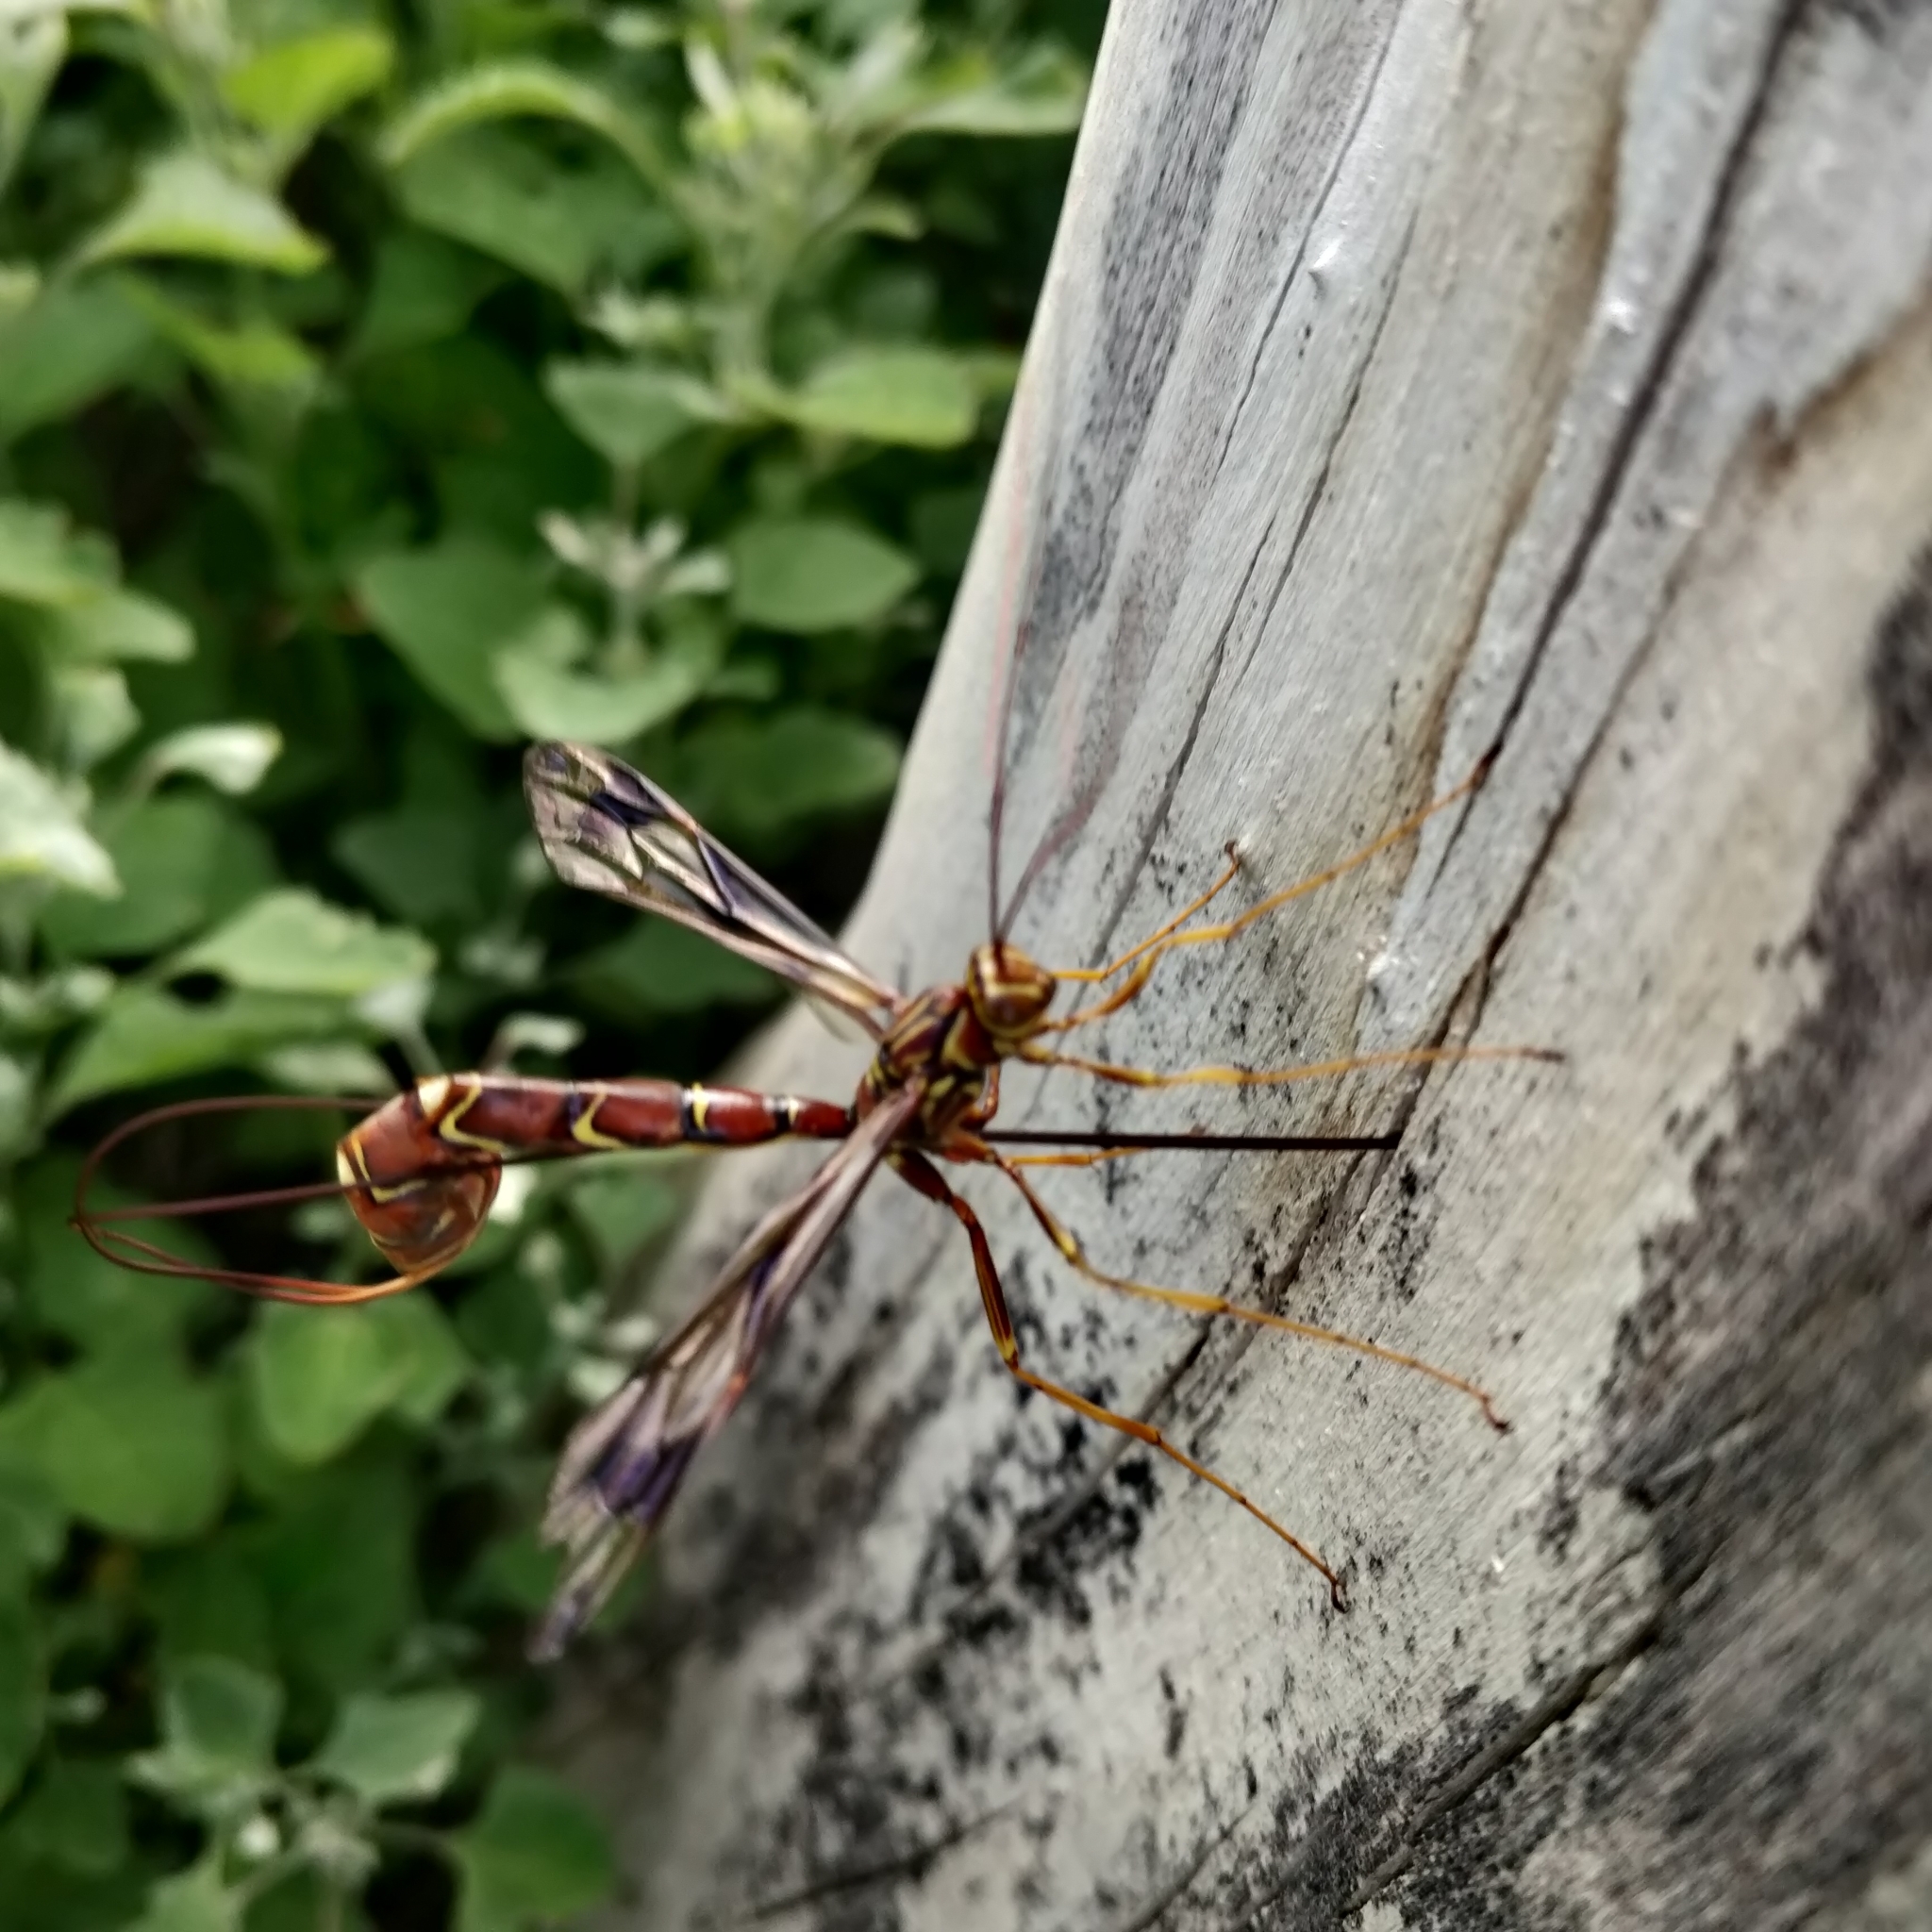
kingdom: Animalia
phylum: Arthropoda
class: Insecta
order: Hymenoptera
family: Ichneumonidae
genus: Megarhyssa
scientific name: Megarhyssa macrura
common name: Long-tailed giant ichneumonid wasp
